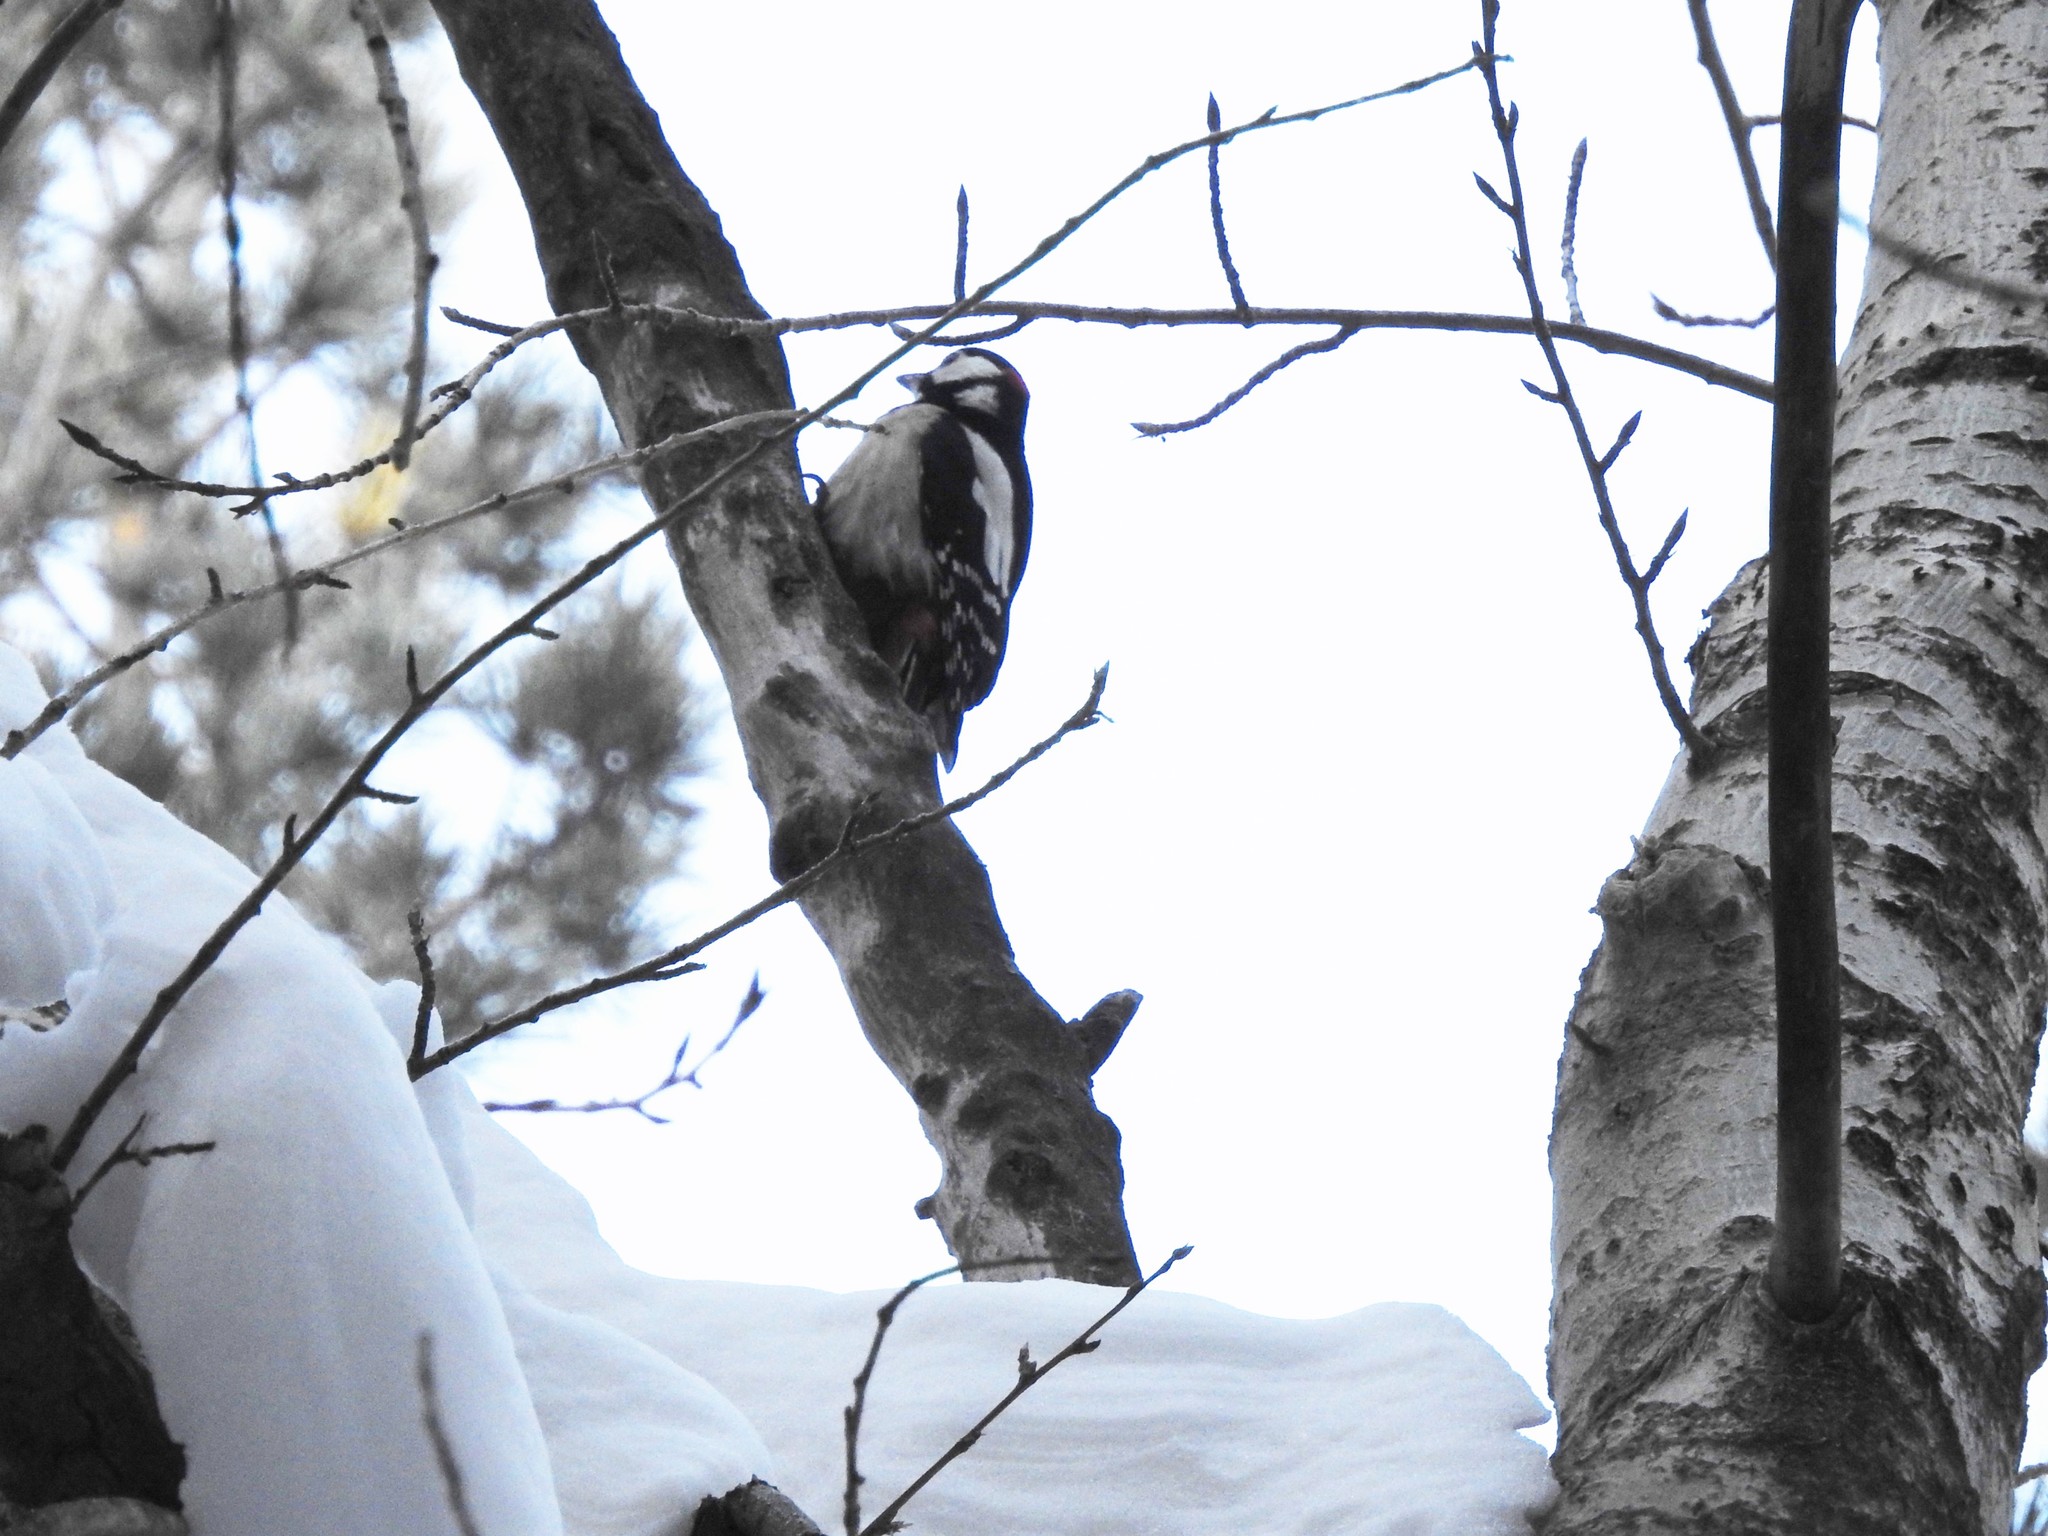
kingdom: Animalia
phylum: Chordata
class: Aves
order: Piciformes
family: Picidae
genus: Dendrocopos
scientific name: Dendrocopos major
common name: Great spotted woodpecker
